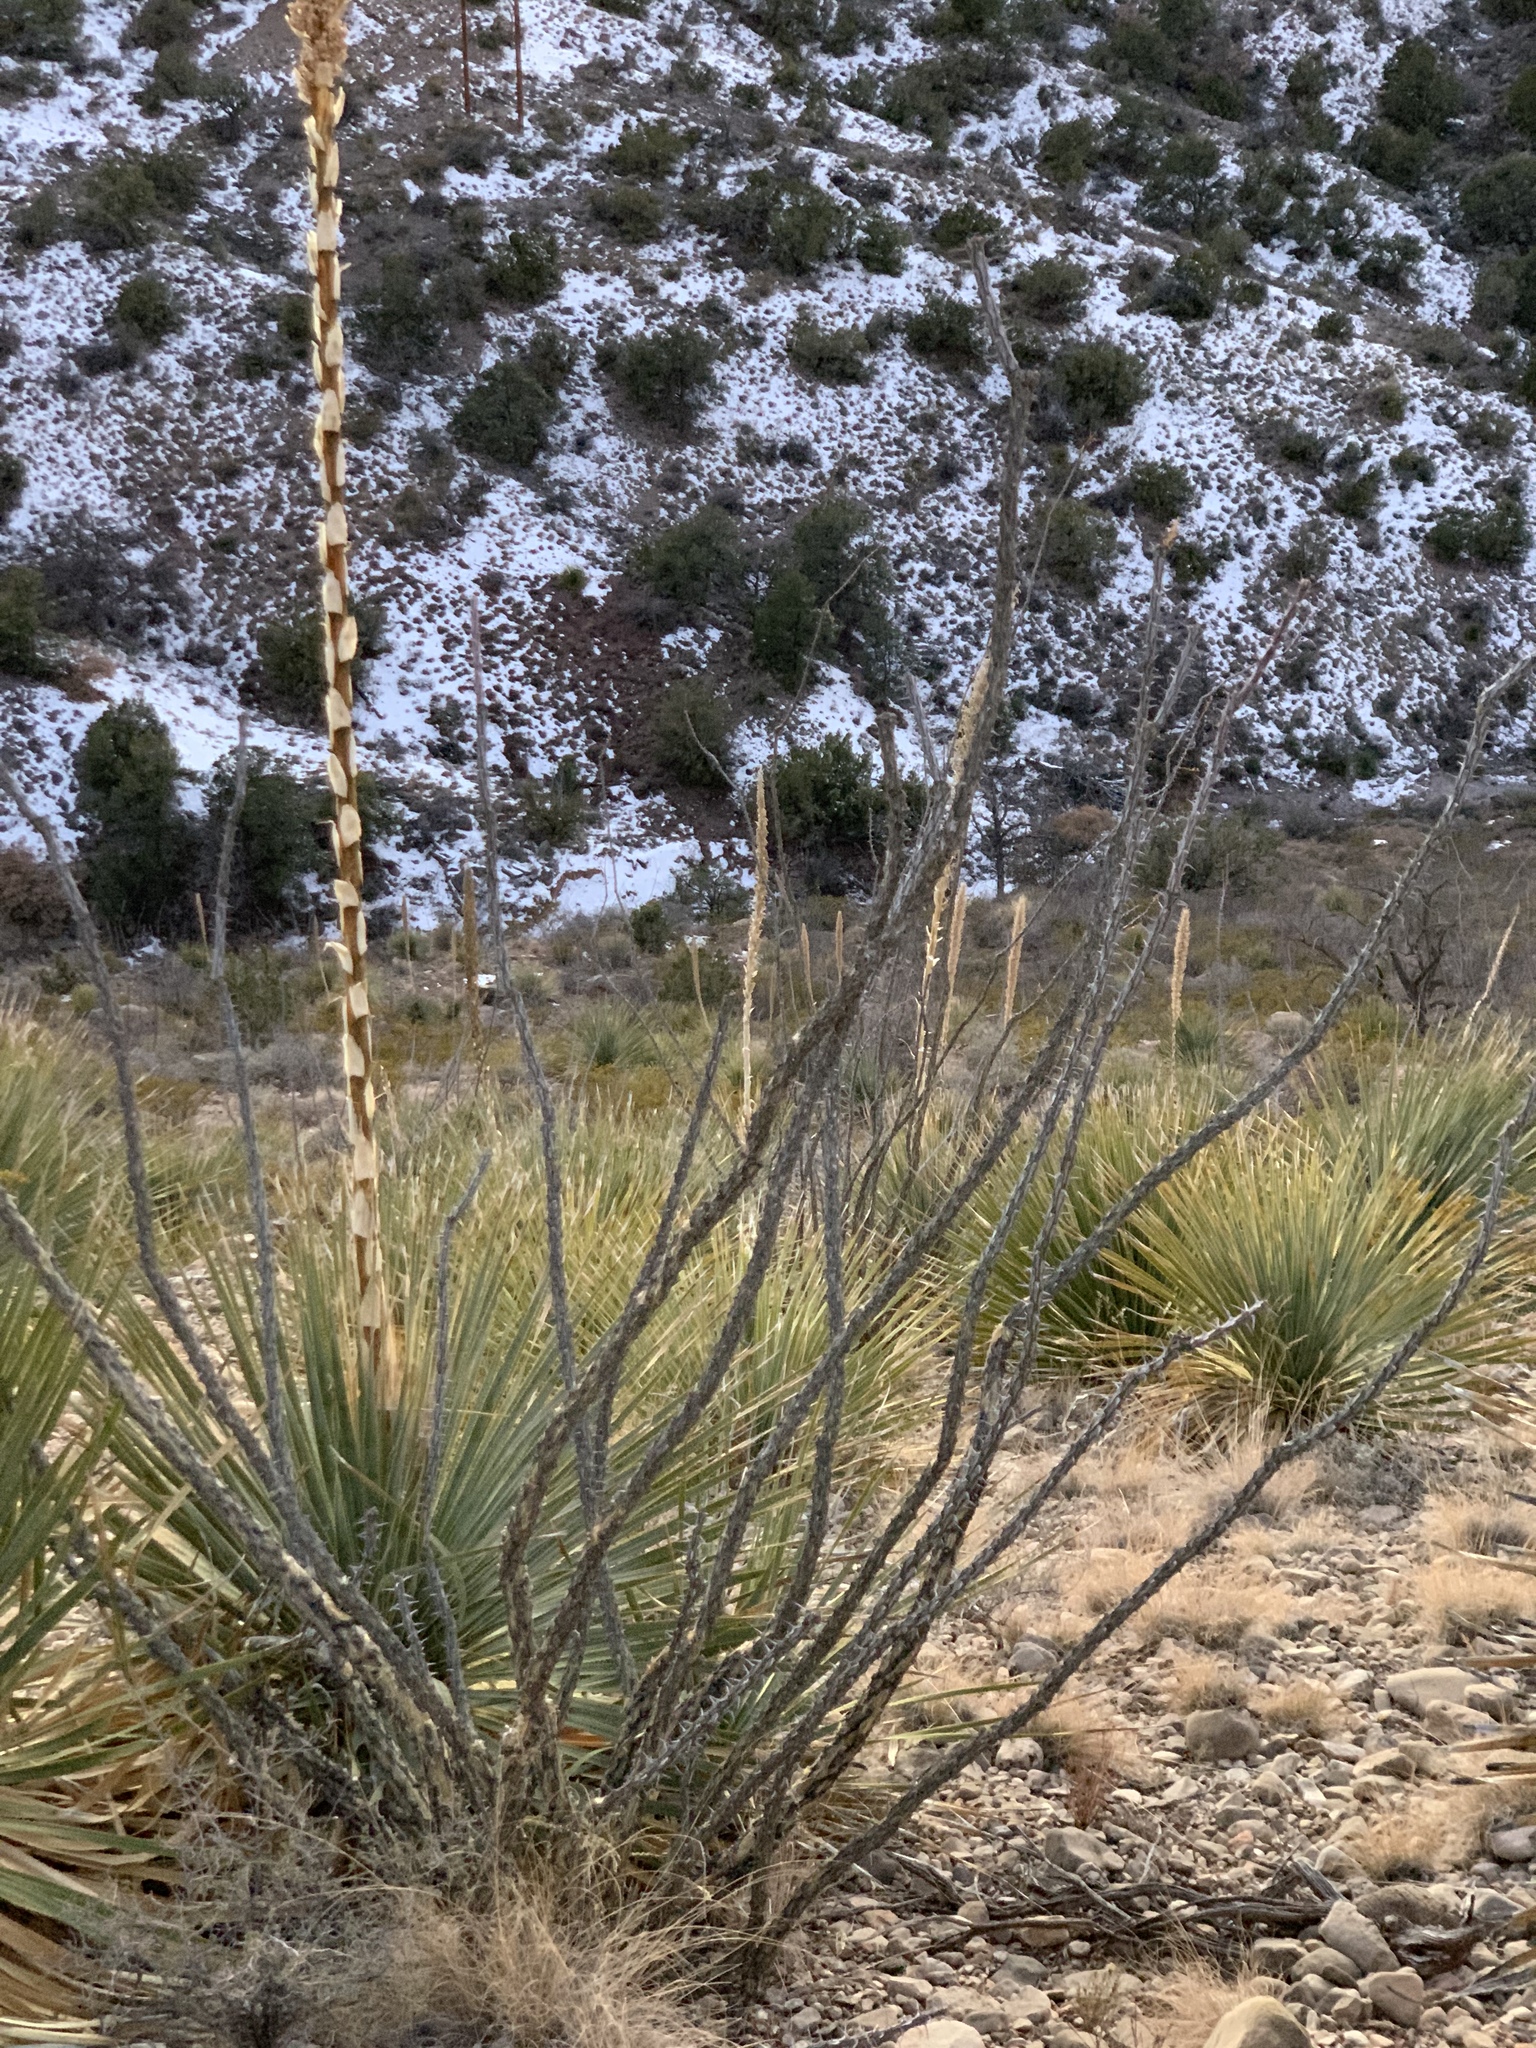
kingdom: Plantae
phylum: Tracheophyta
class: Magnoliopsida
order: Ericales
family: Fouquieriaceae
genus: Fouquieria
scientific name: Fouquieria splendens
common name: Vine-cactus
